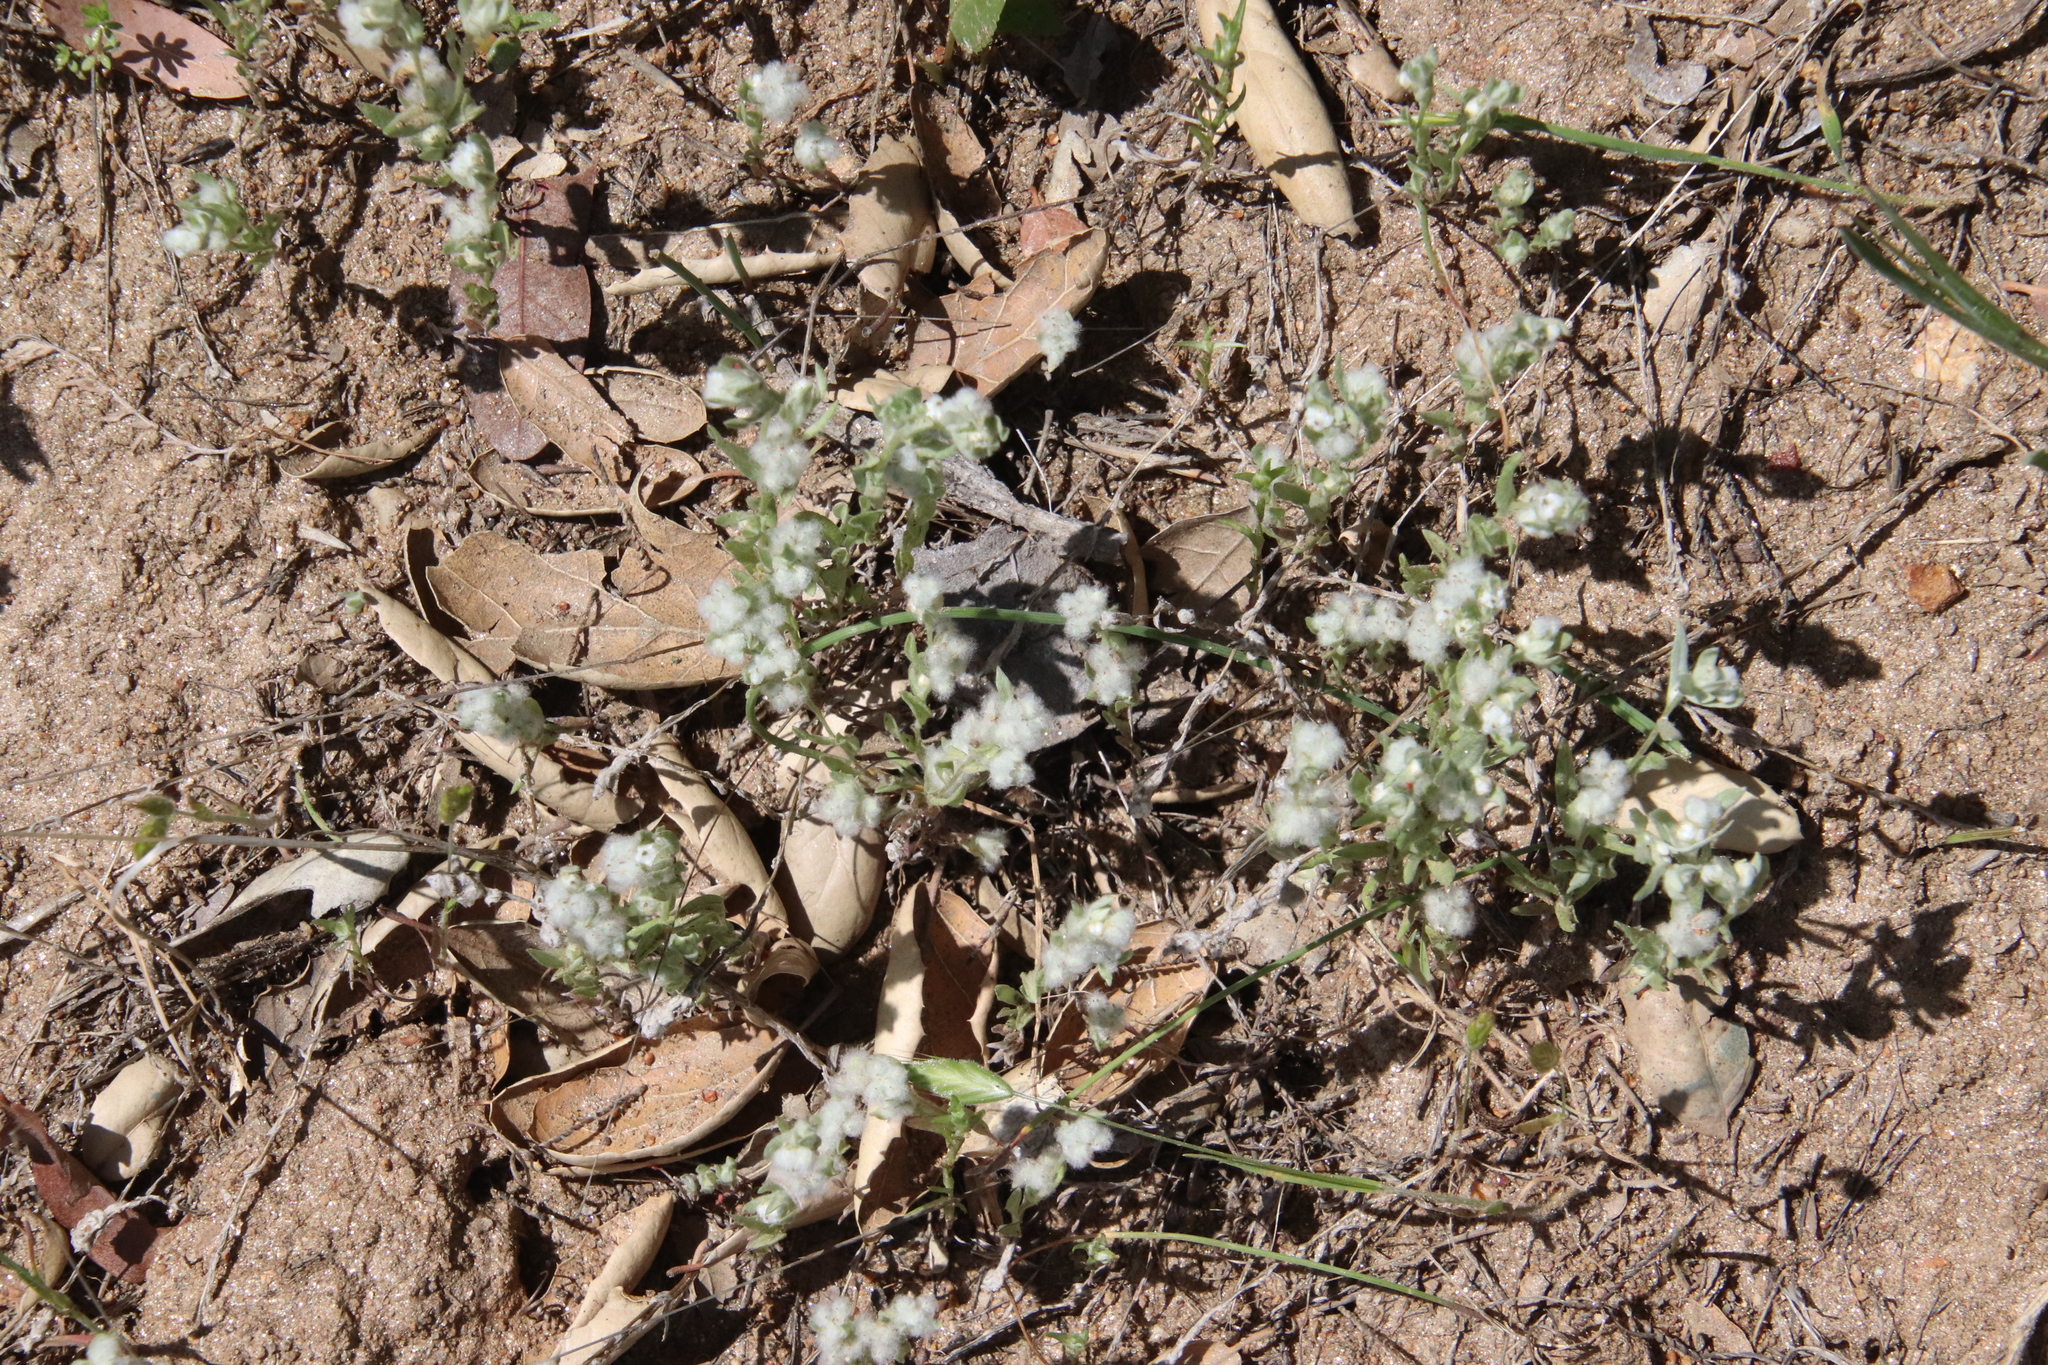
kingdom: Plantae
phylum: Tracheophyta
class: Magnoliopsida
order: Asterales
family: Asteraceae
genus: Bombycilaena
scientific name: Bombycilaena californica
